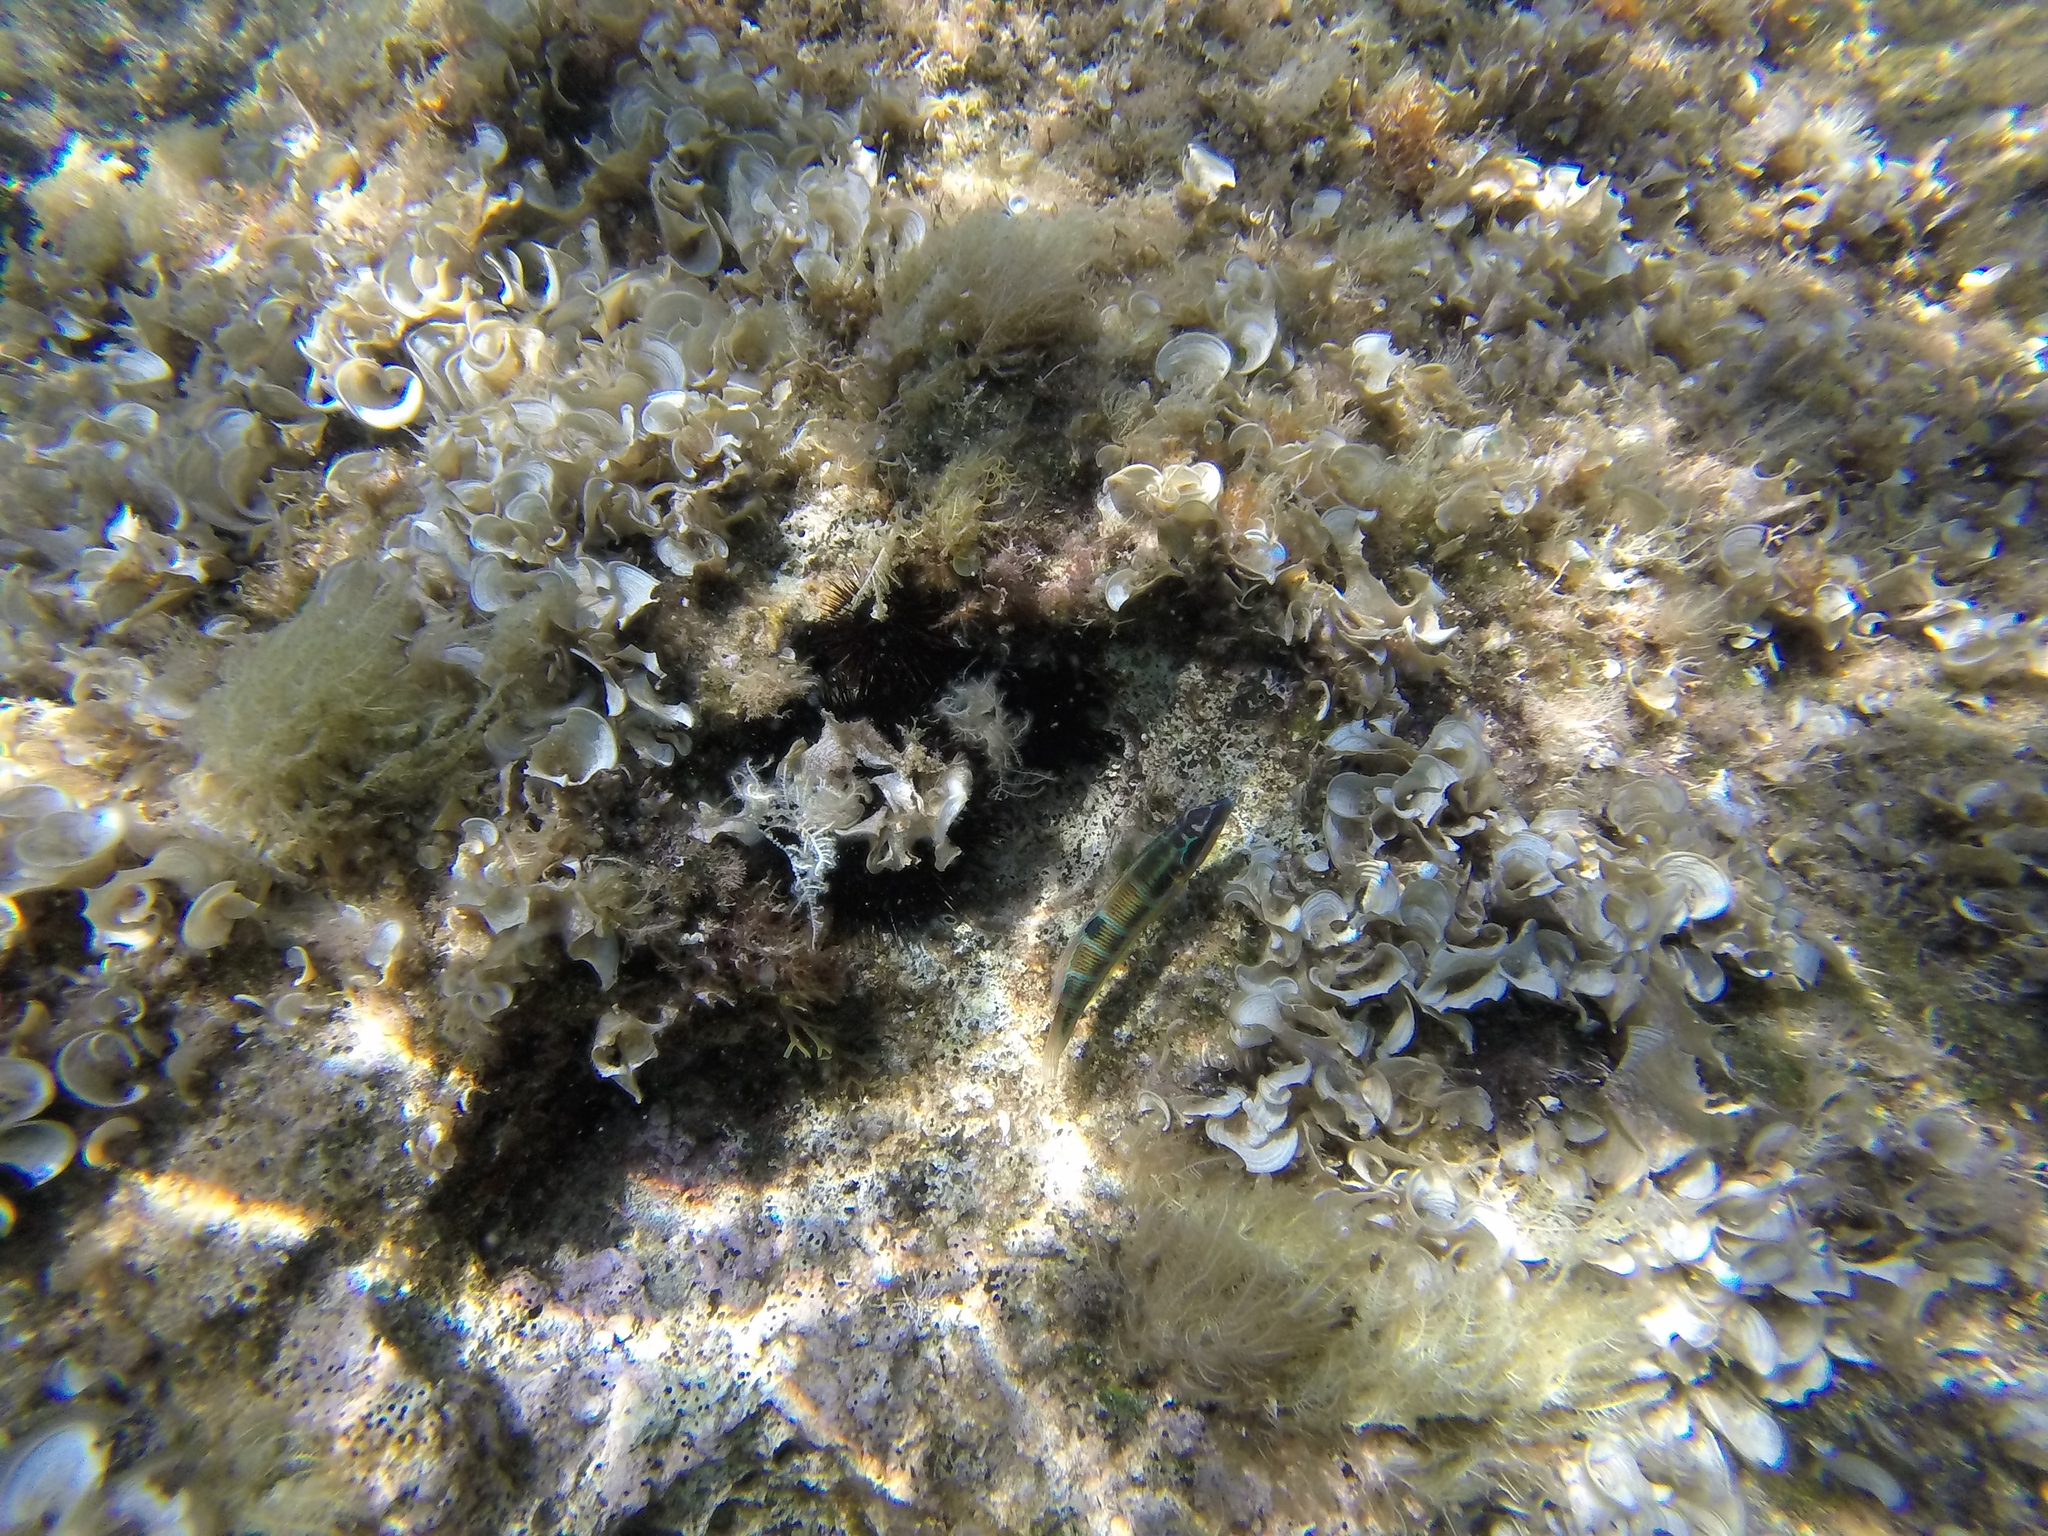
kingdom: Animalia
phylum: Chordata
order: Perciformes
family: Labridae
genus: Thalassoma
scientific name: Thalassoma pavo
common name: Ornate wrasse
